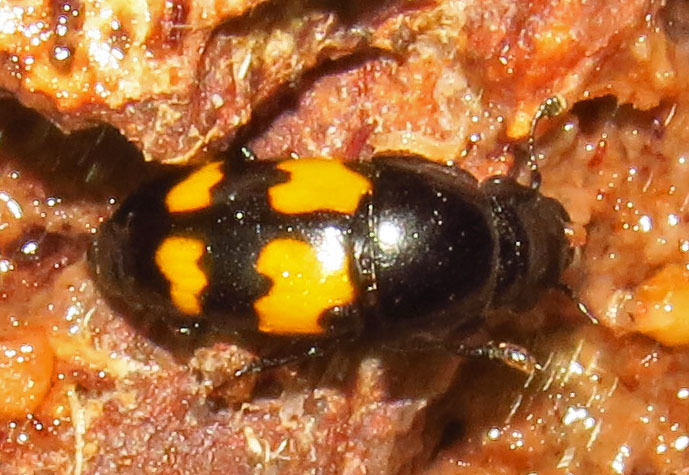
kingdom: Animalia
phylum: Arthropoda
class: Insecta
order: Coleoptera
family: Nitidulidae
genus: Glischrochilus
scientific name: Glischrochilus fasciatus
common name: Picnic beetle
